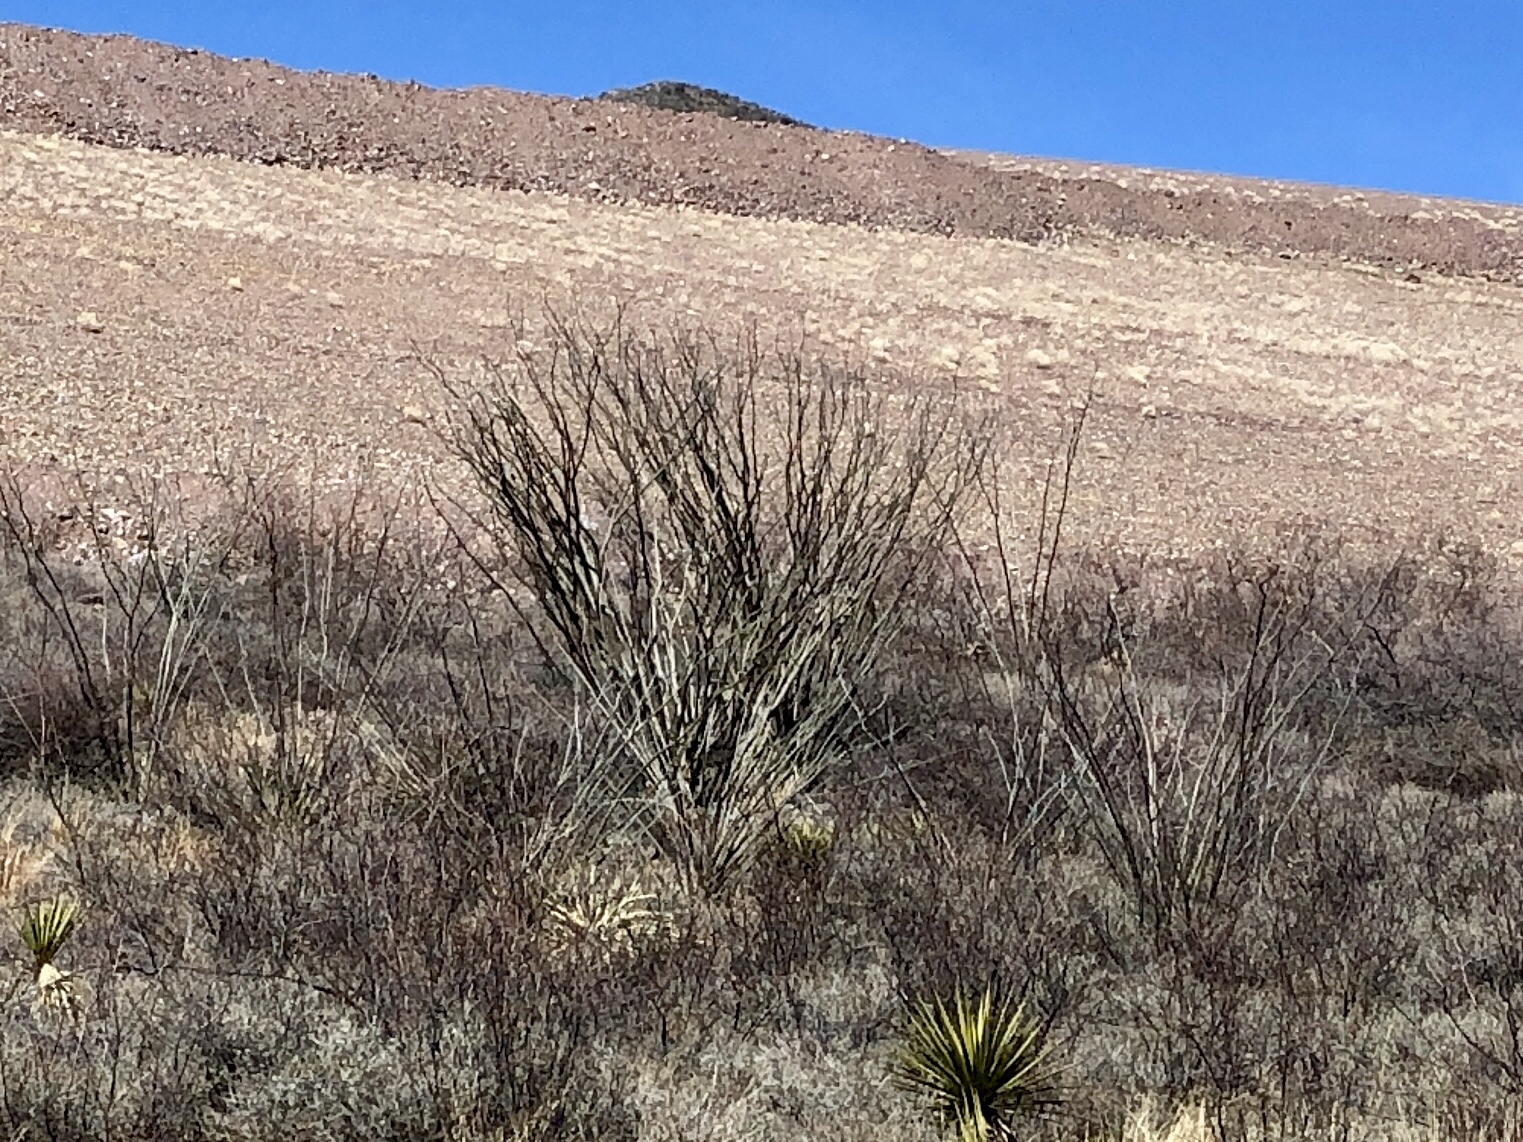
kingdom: Plantae
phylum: Tracheophyta
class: Magnoliopsida
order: Ericales
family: Fouquieriaceae
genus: Fouquieria
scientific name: Fouquieria splendens
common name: Vine-cactus
